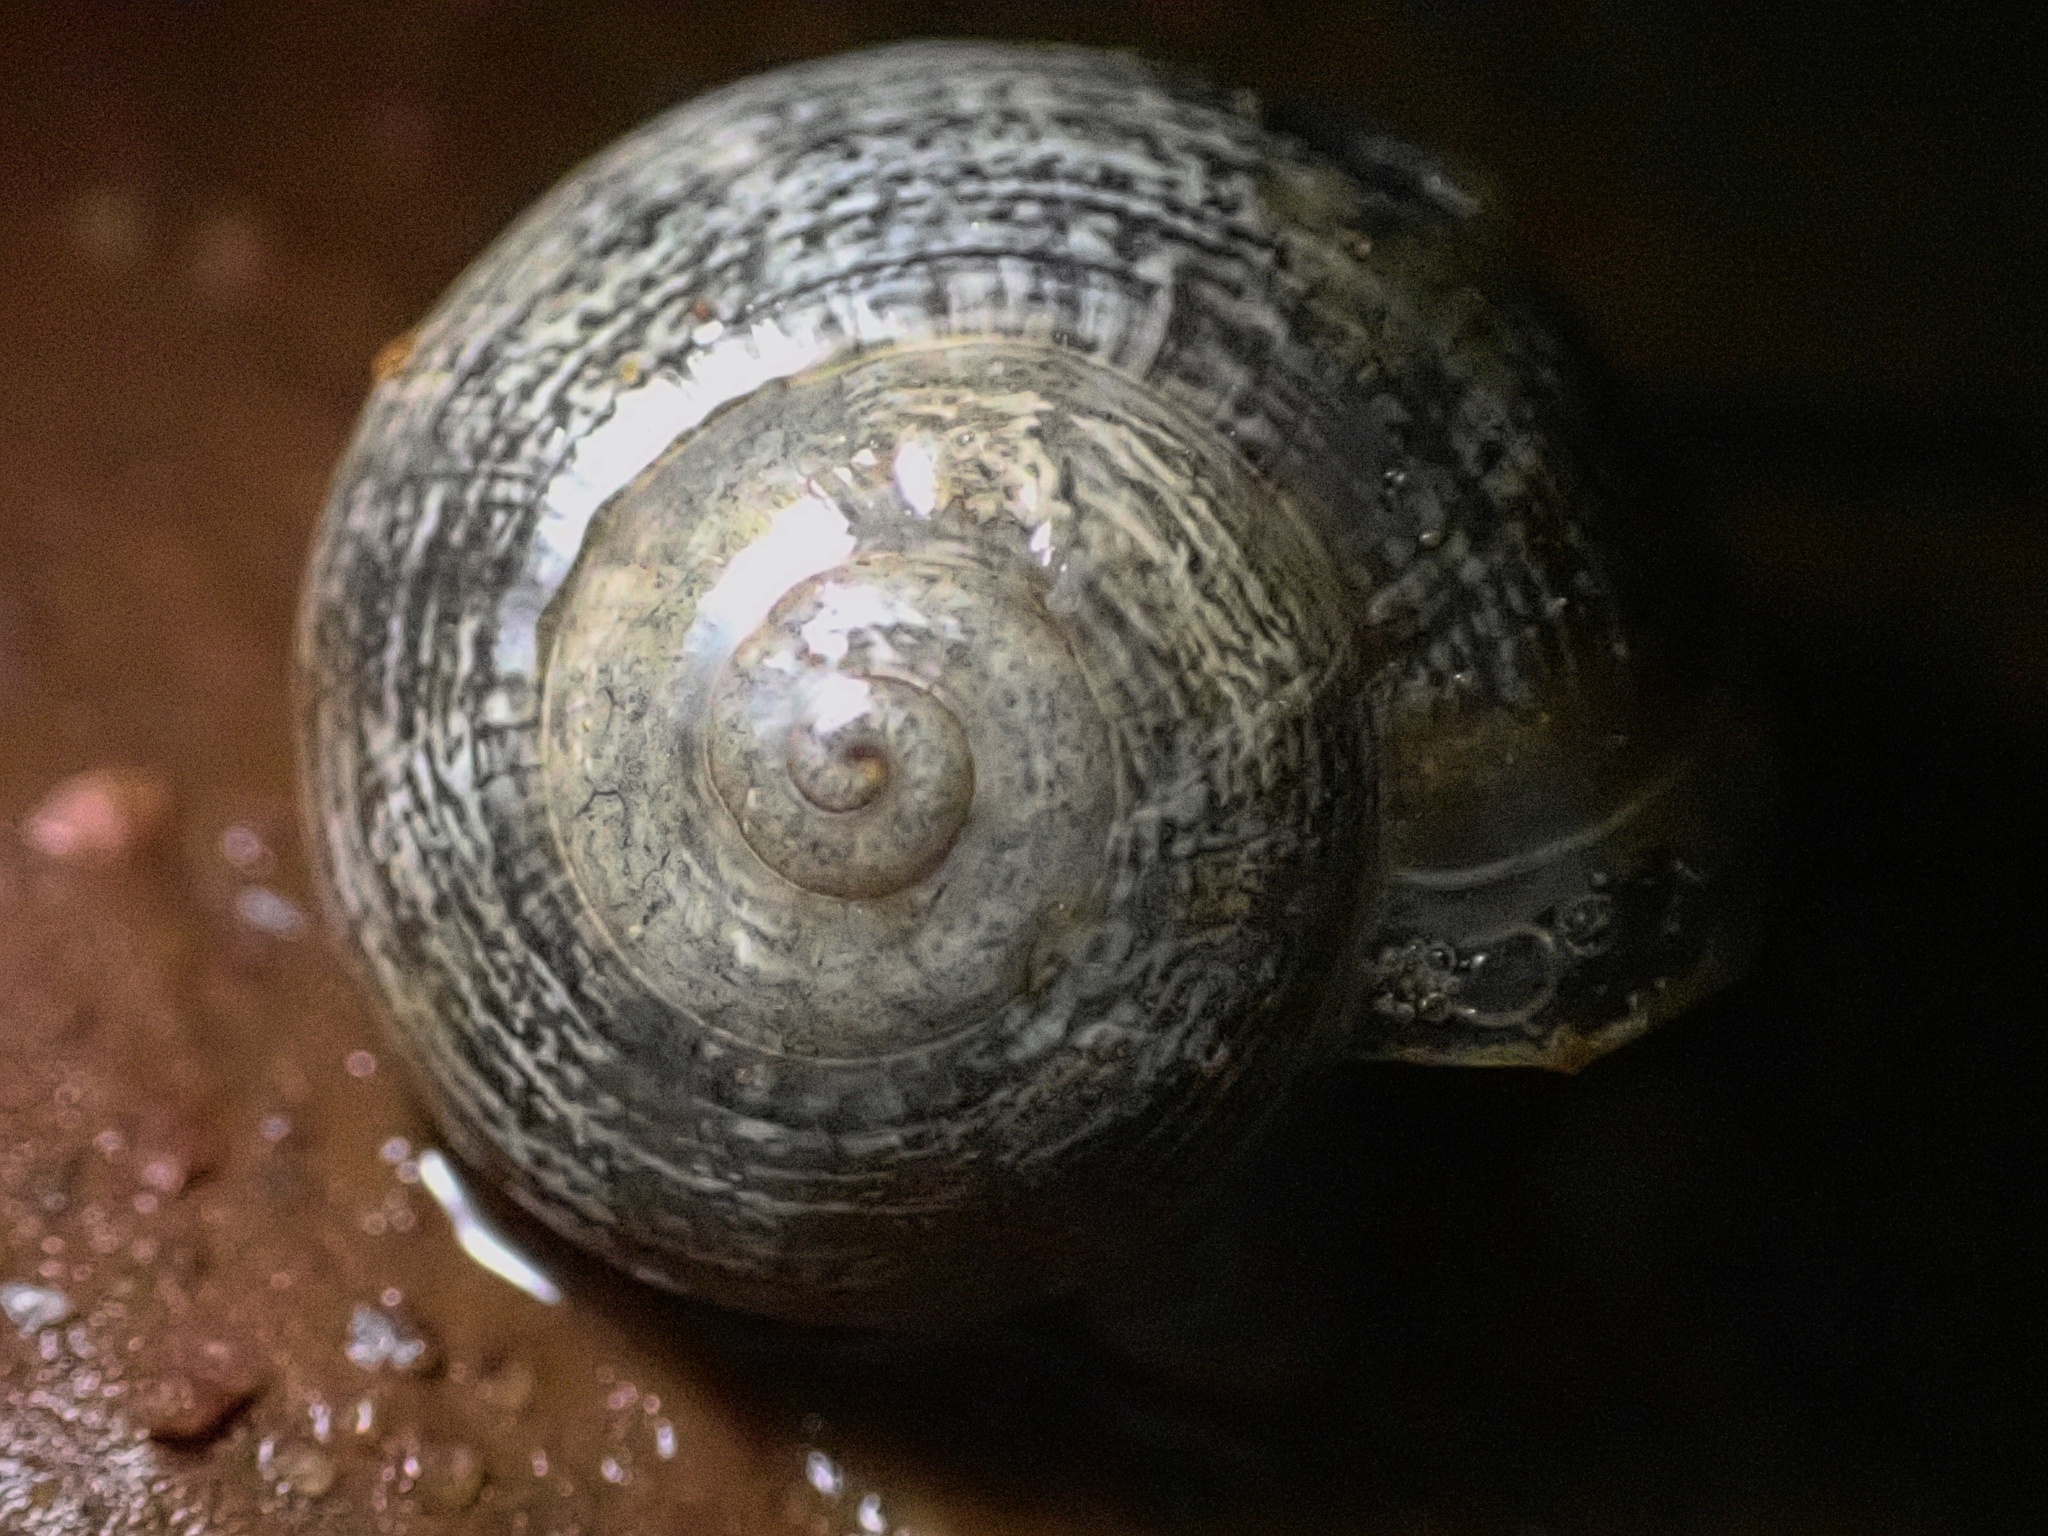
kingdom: Animalia
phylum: Mollusca
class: Gastropoda
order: Stylommatophora
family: Helicidae
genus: Otala
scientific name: Otala lactea
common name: Milk snail
